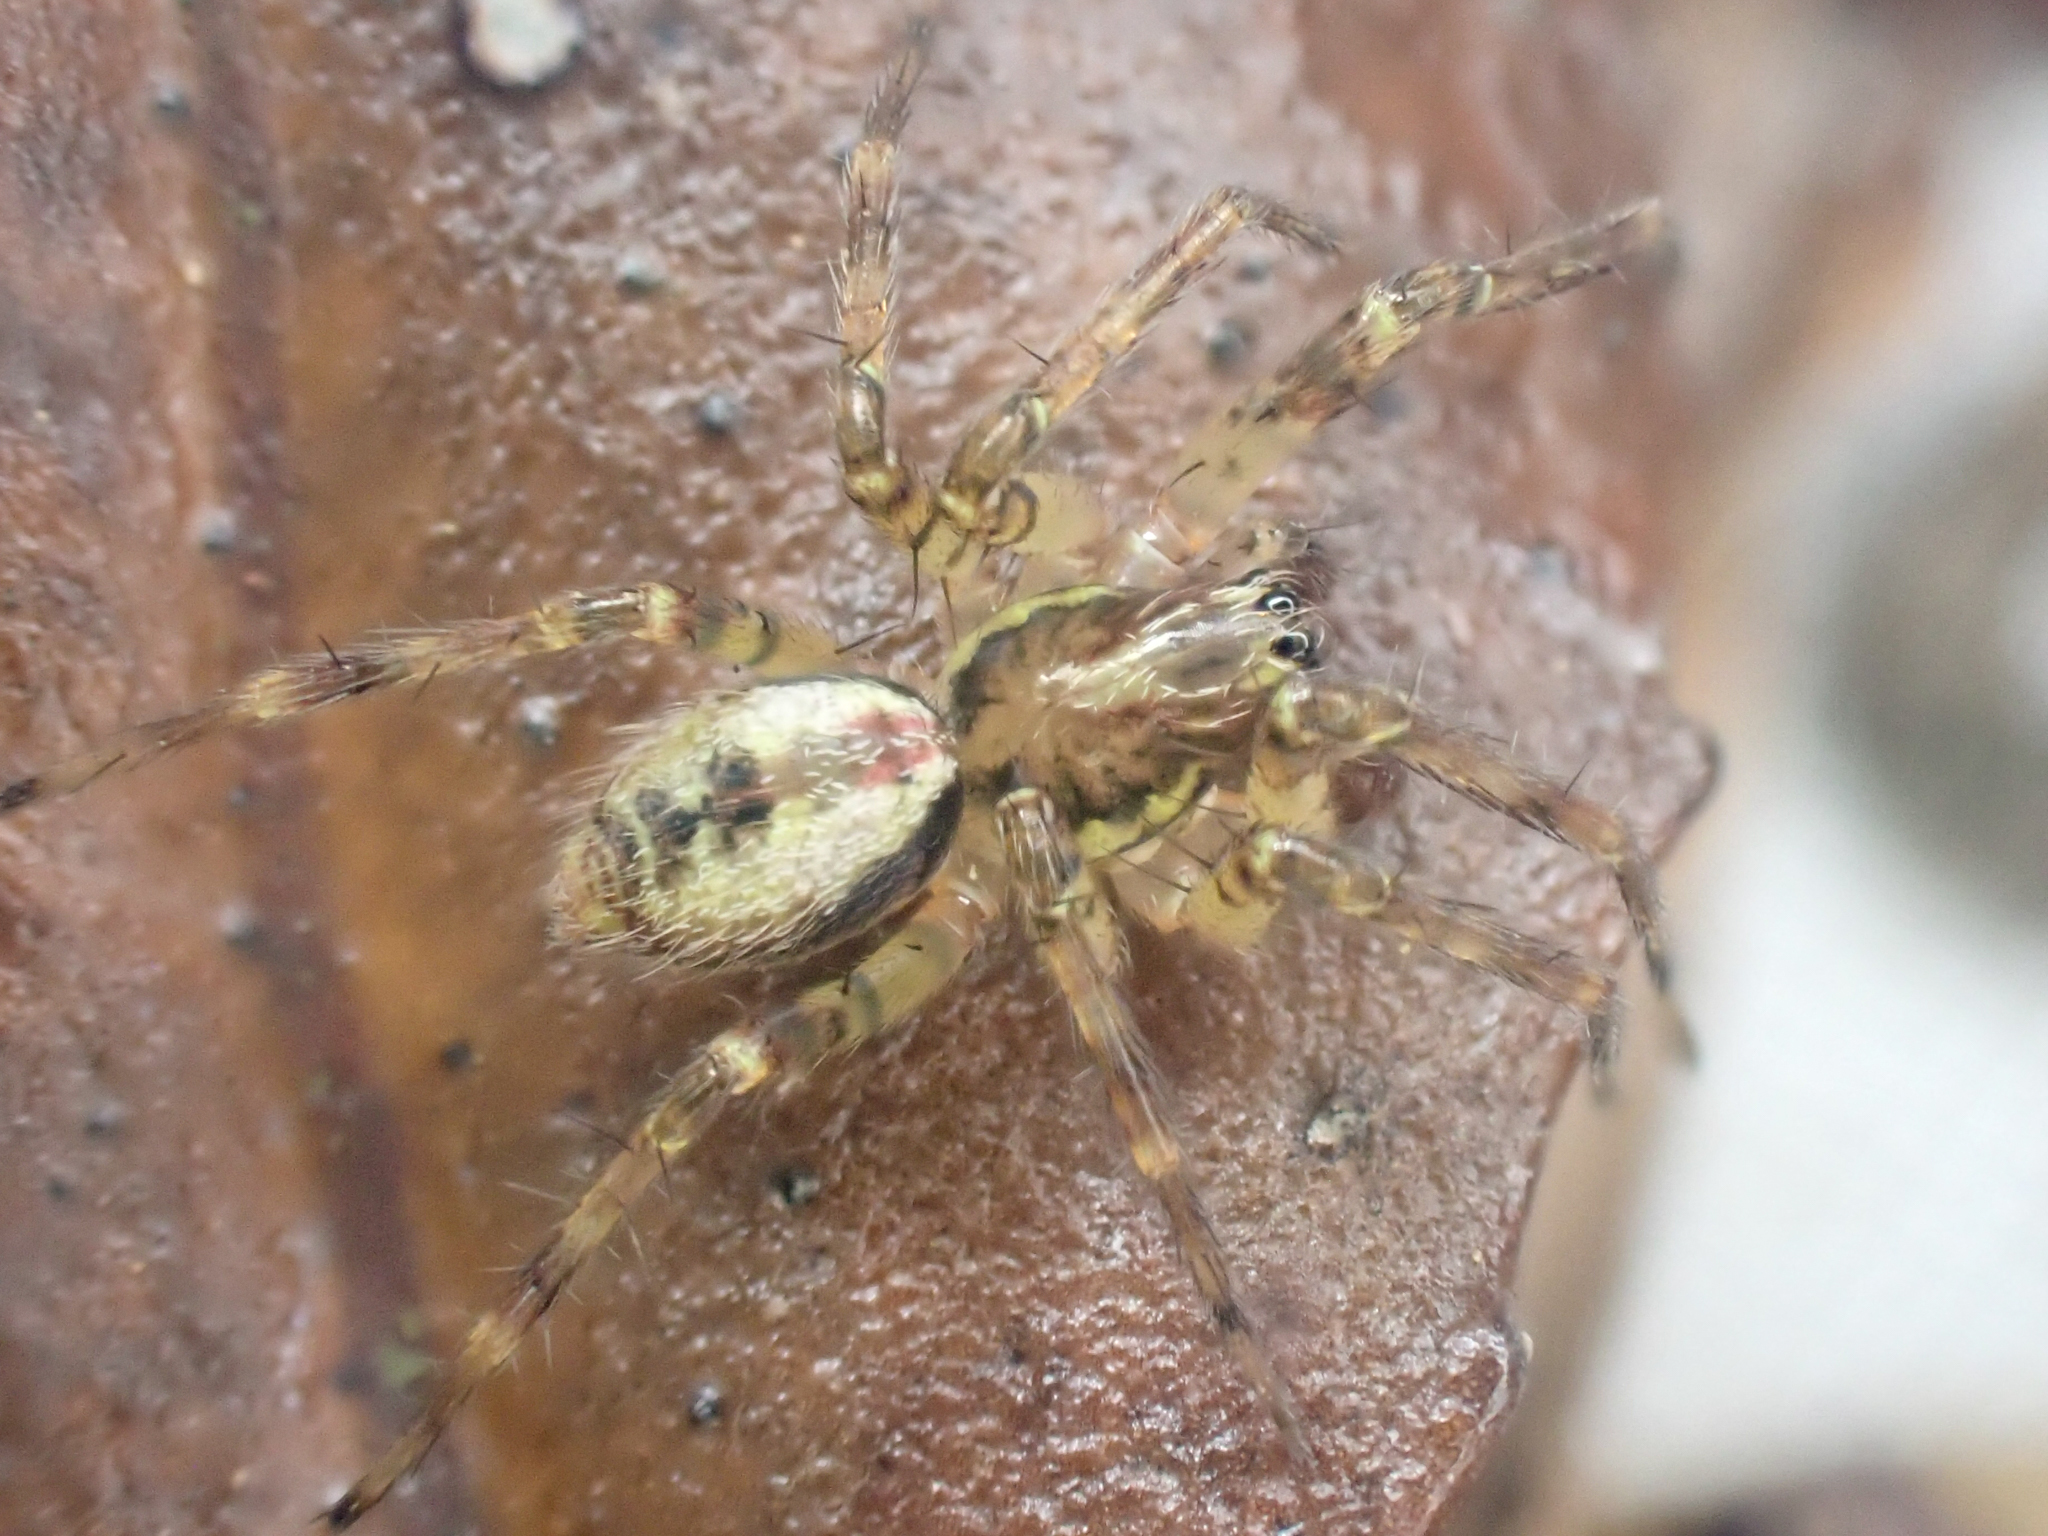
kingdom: Animalia
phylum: Arthropoda
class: Arachnida
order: Araneae
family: Cybaeidae
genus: Dirksia
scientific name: Dirksia cinctipes
